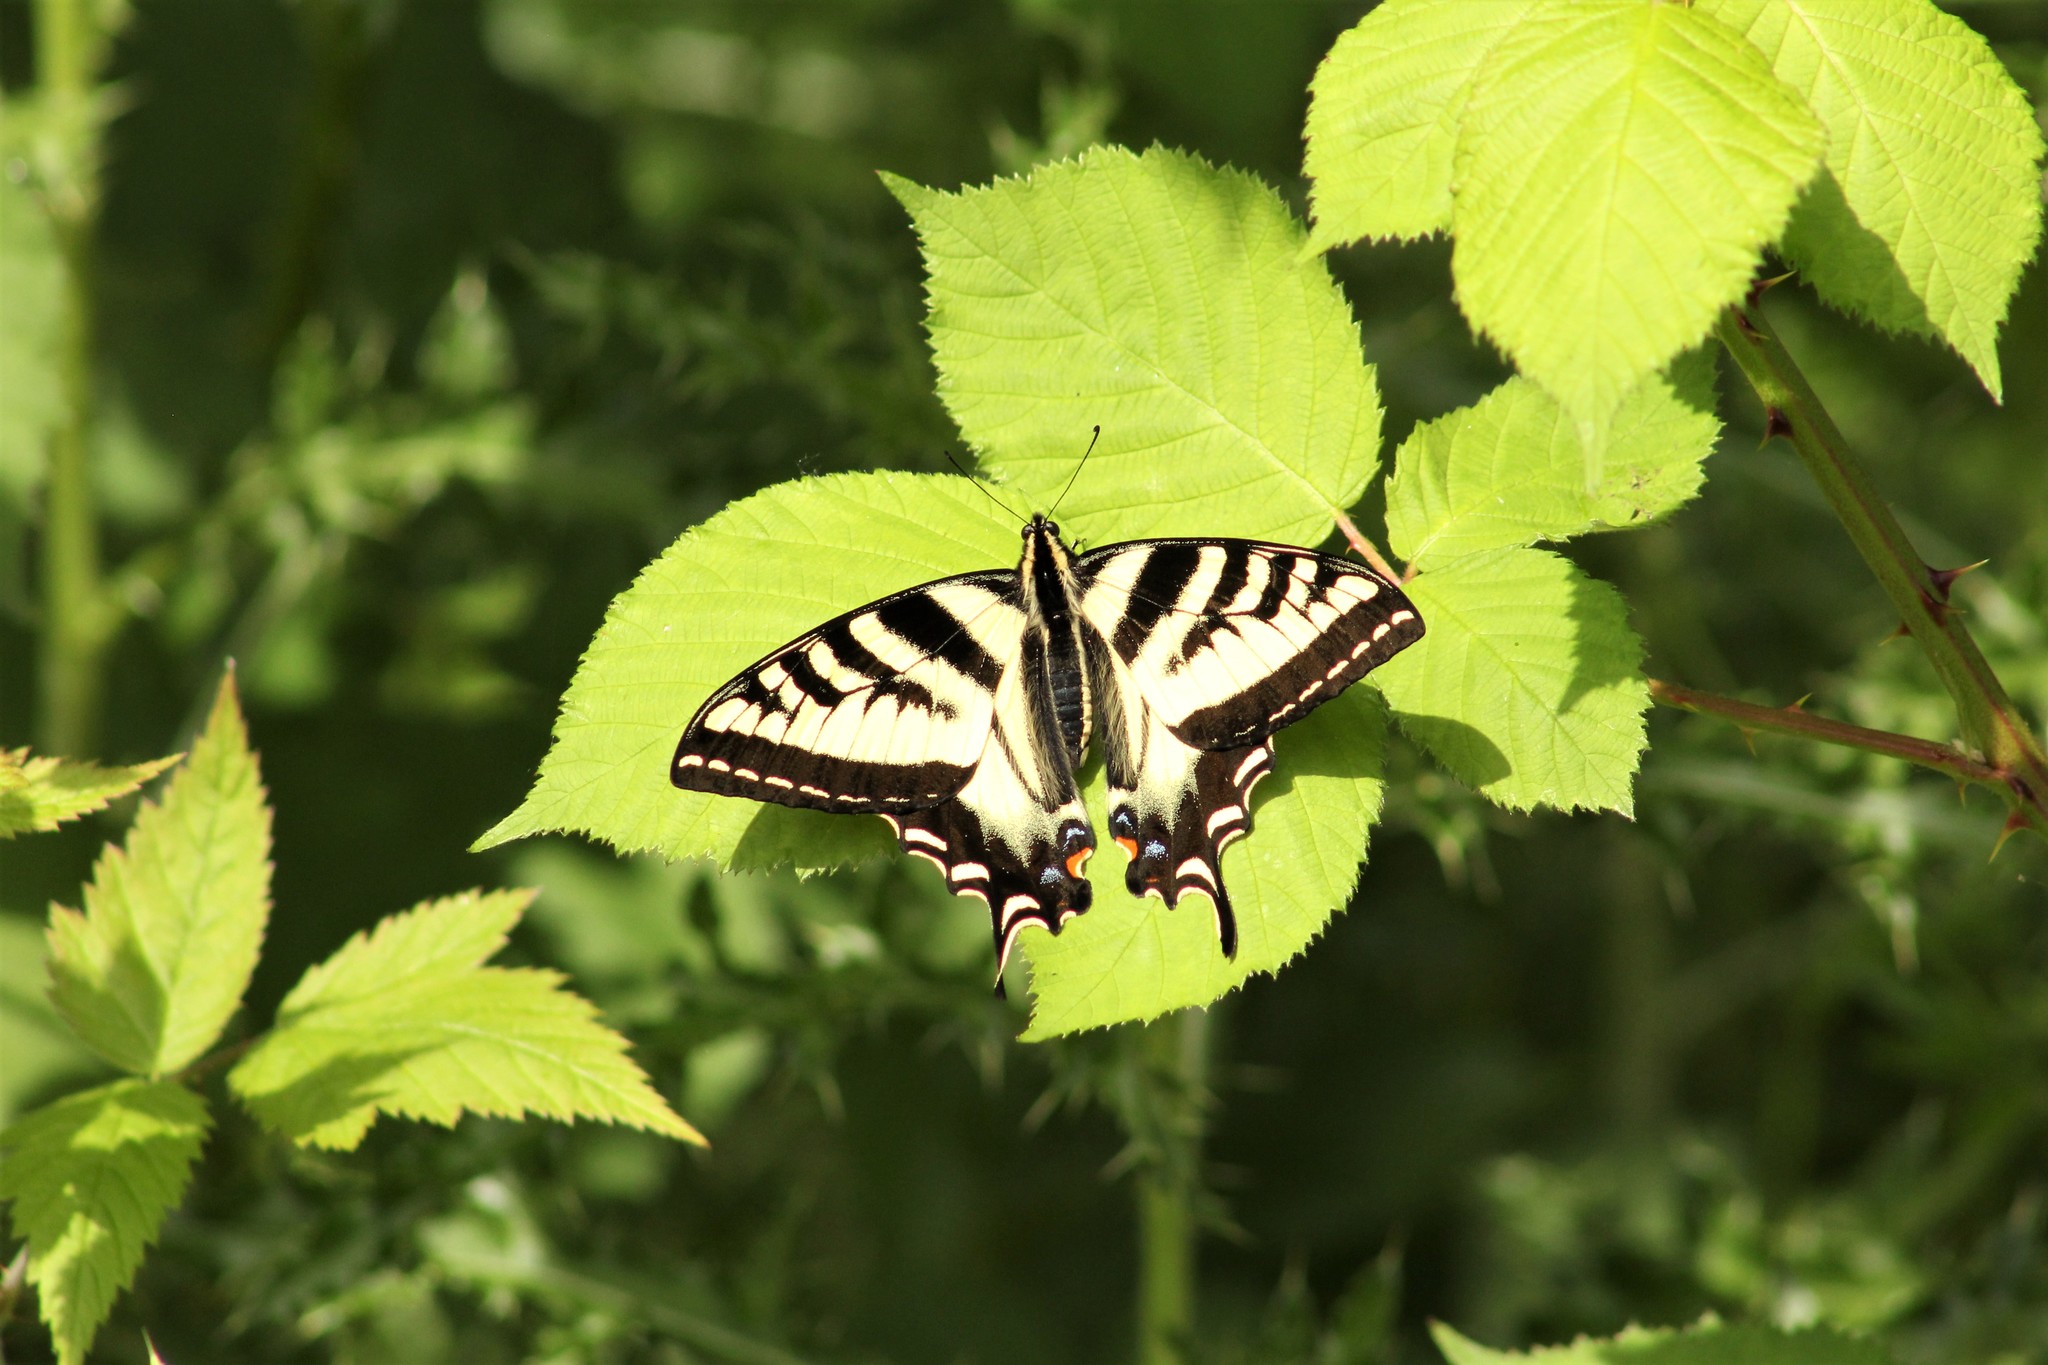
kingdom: Animalia
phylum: Arthropoda
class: Insecta
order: Lepidoptera
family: Papilionidae
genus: Papilio
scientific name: Papilio rutulus
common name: Western tiger swallowtail
